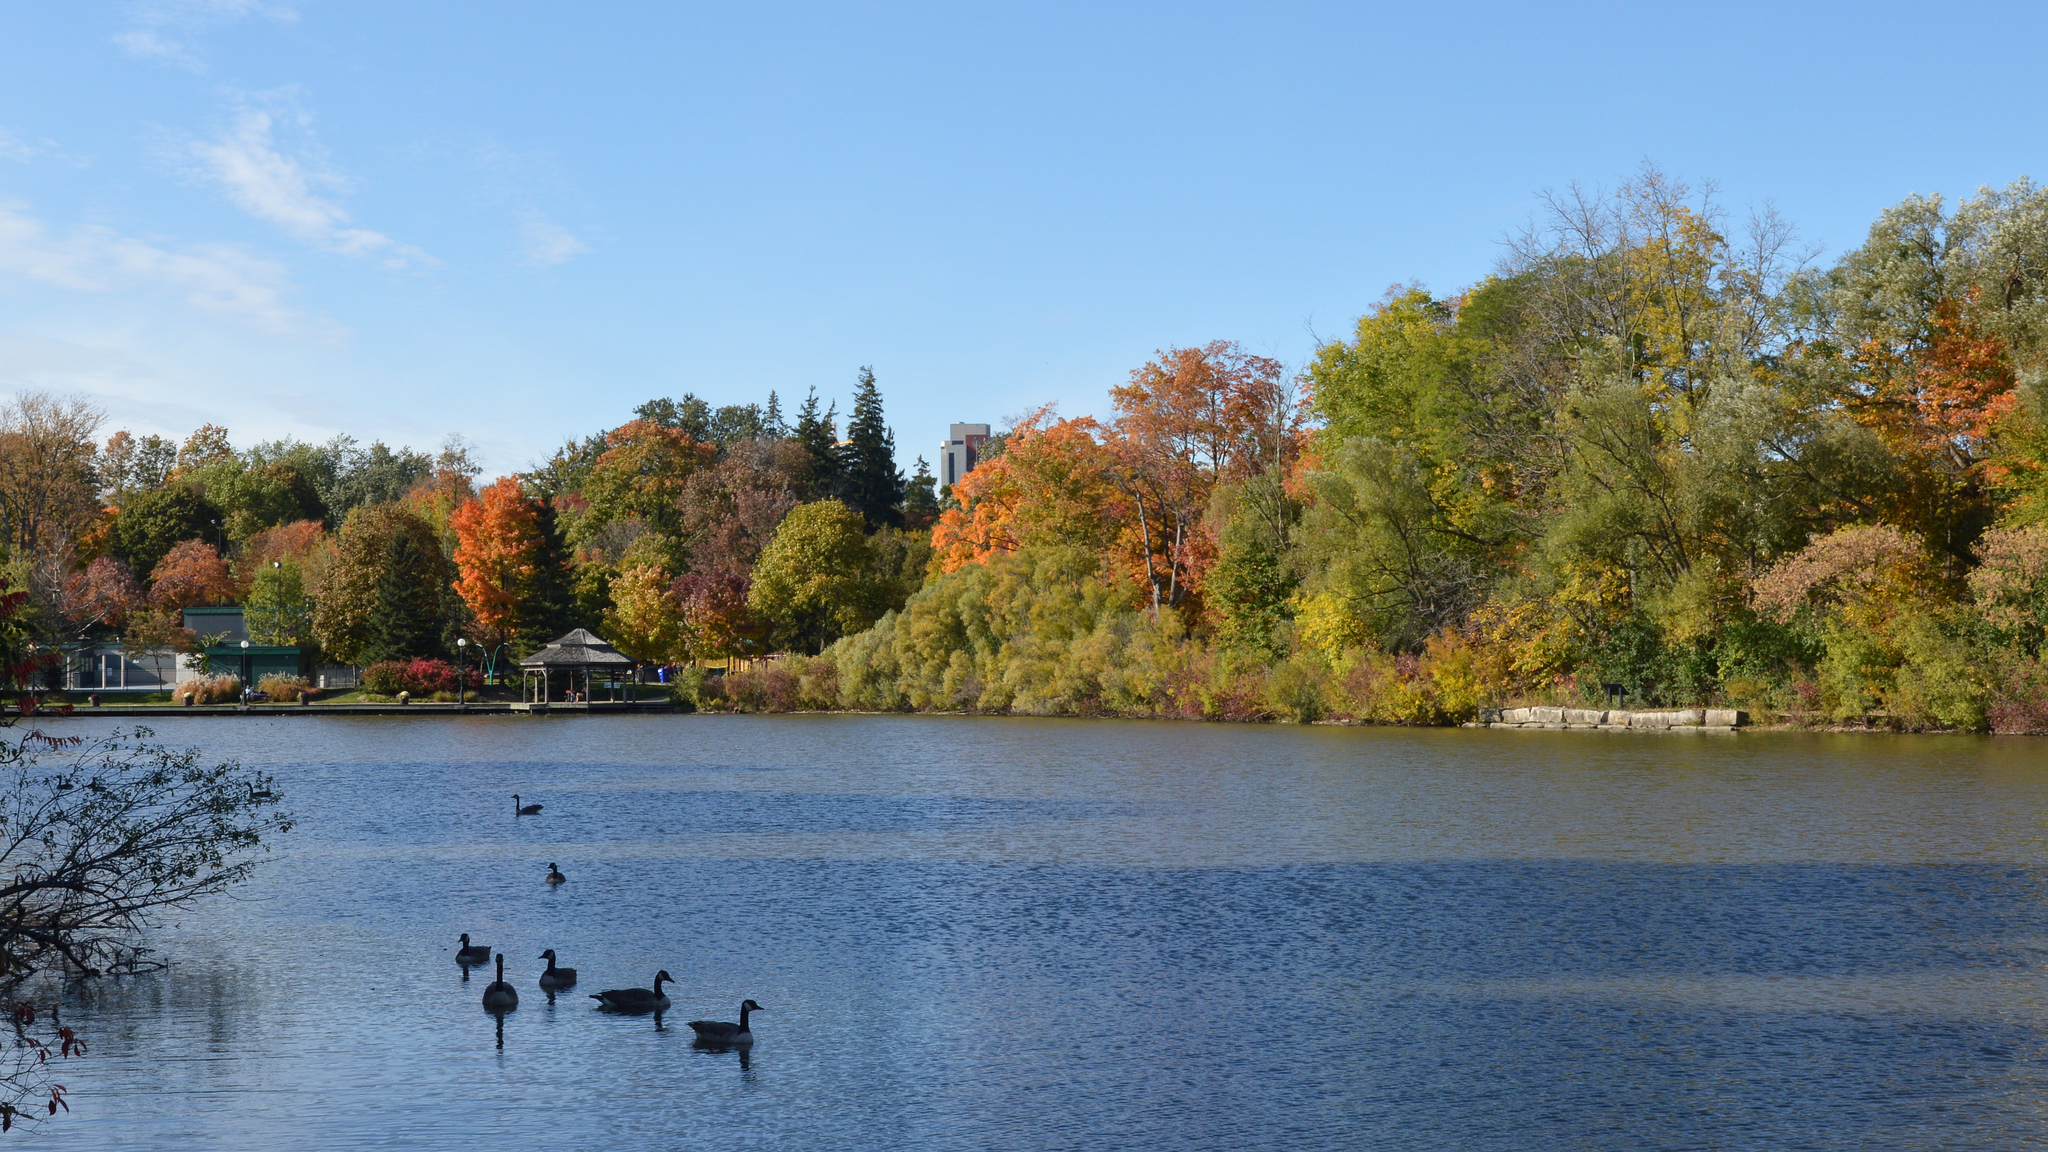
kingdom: Animalia
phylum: Chordata
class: Aves
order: Anseriformes
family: Anatidae
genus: Branta
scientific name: Branta canadensis
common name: Canada goose
